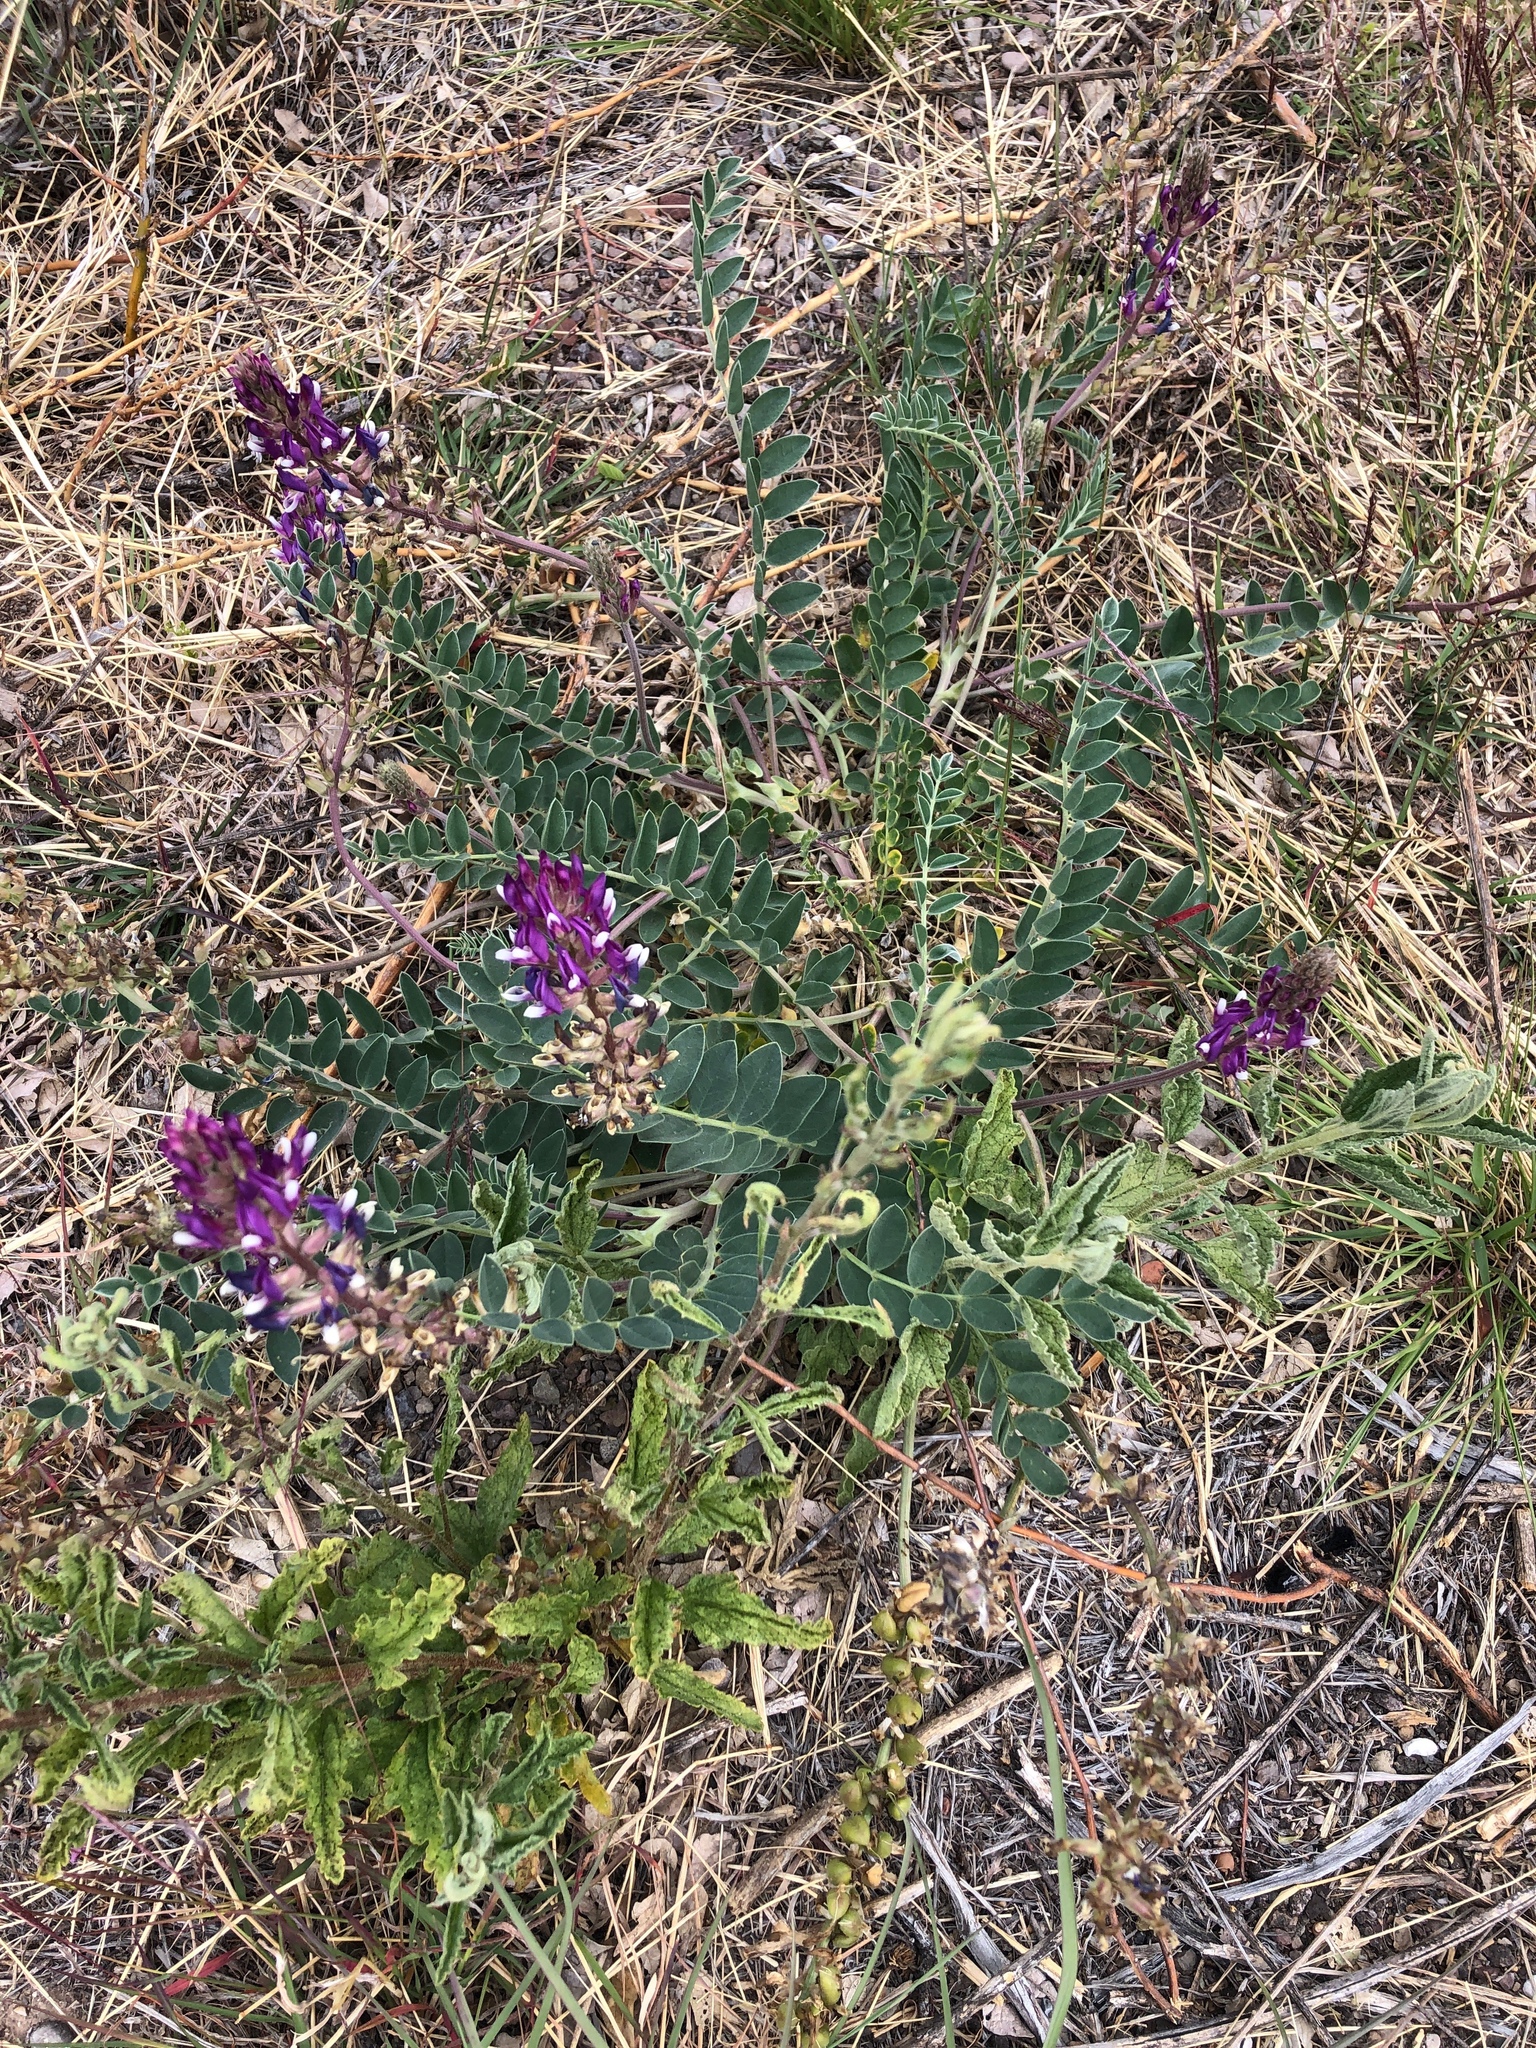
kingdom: Plantae
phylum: Tracheophyta
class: Magnoliopsida
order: Fabales
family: Fabaceae
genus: Astragalus
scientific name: Astragalus mollissimus
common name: Woolly locoweed
